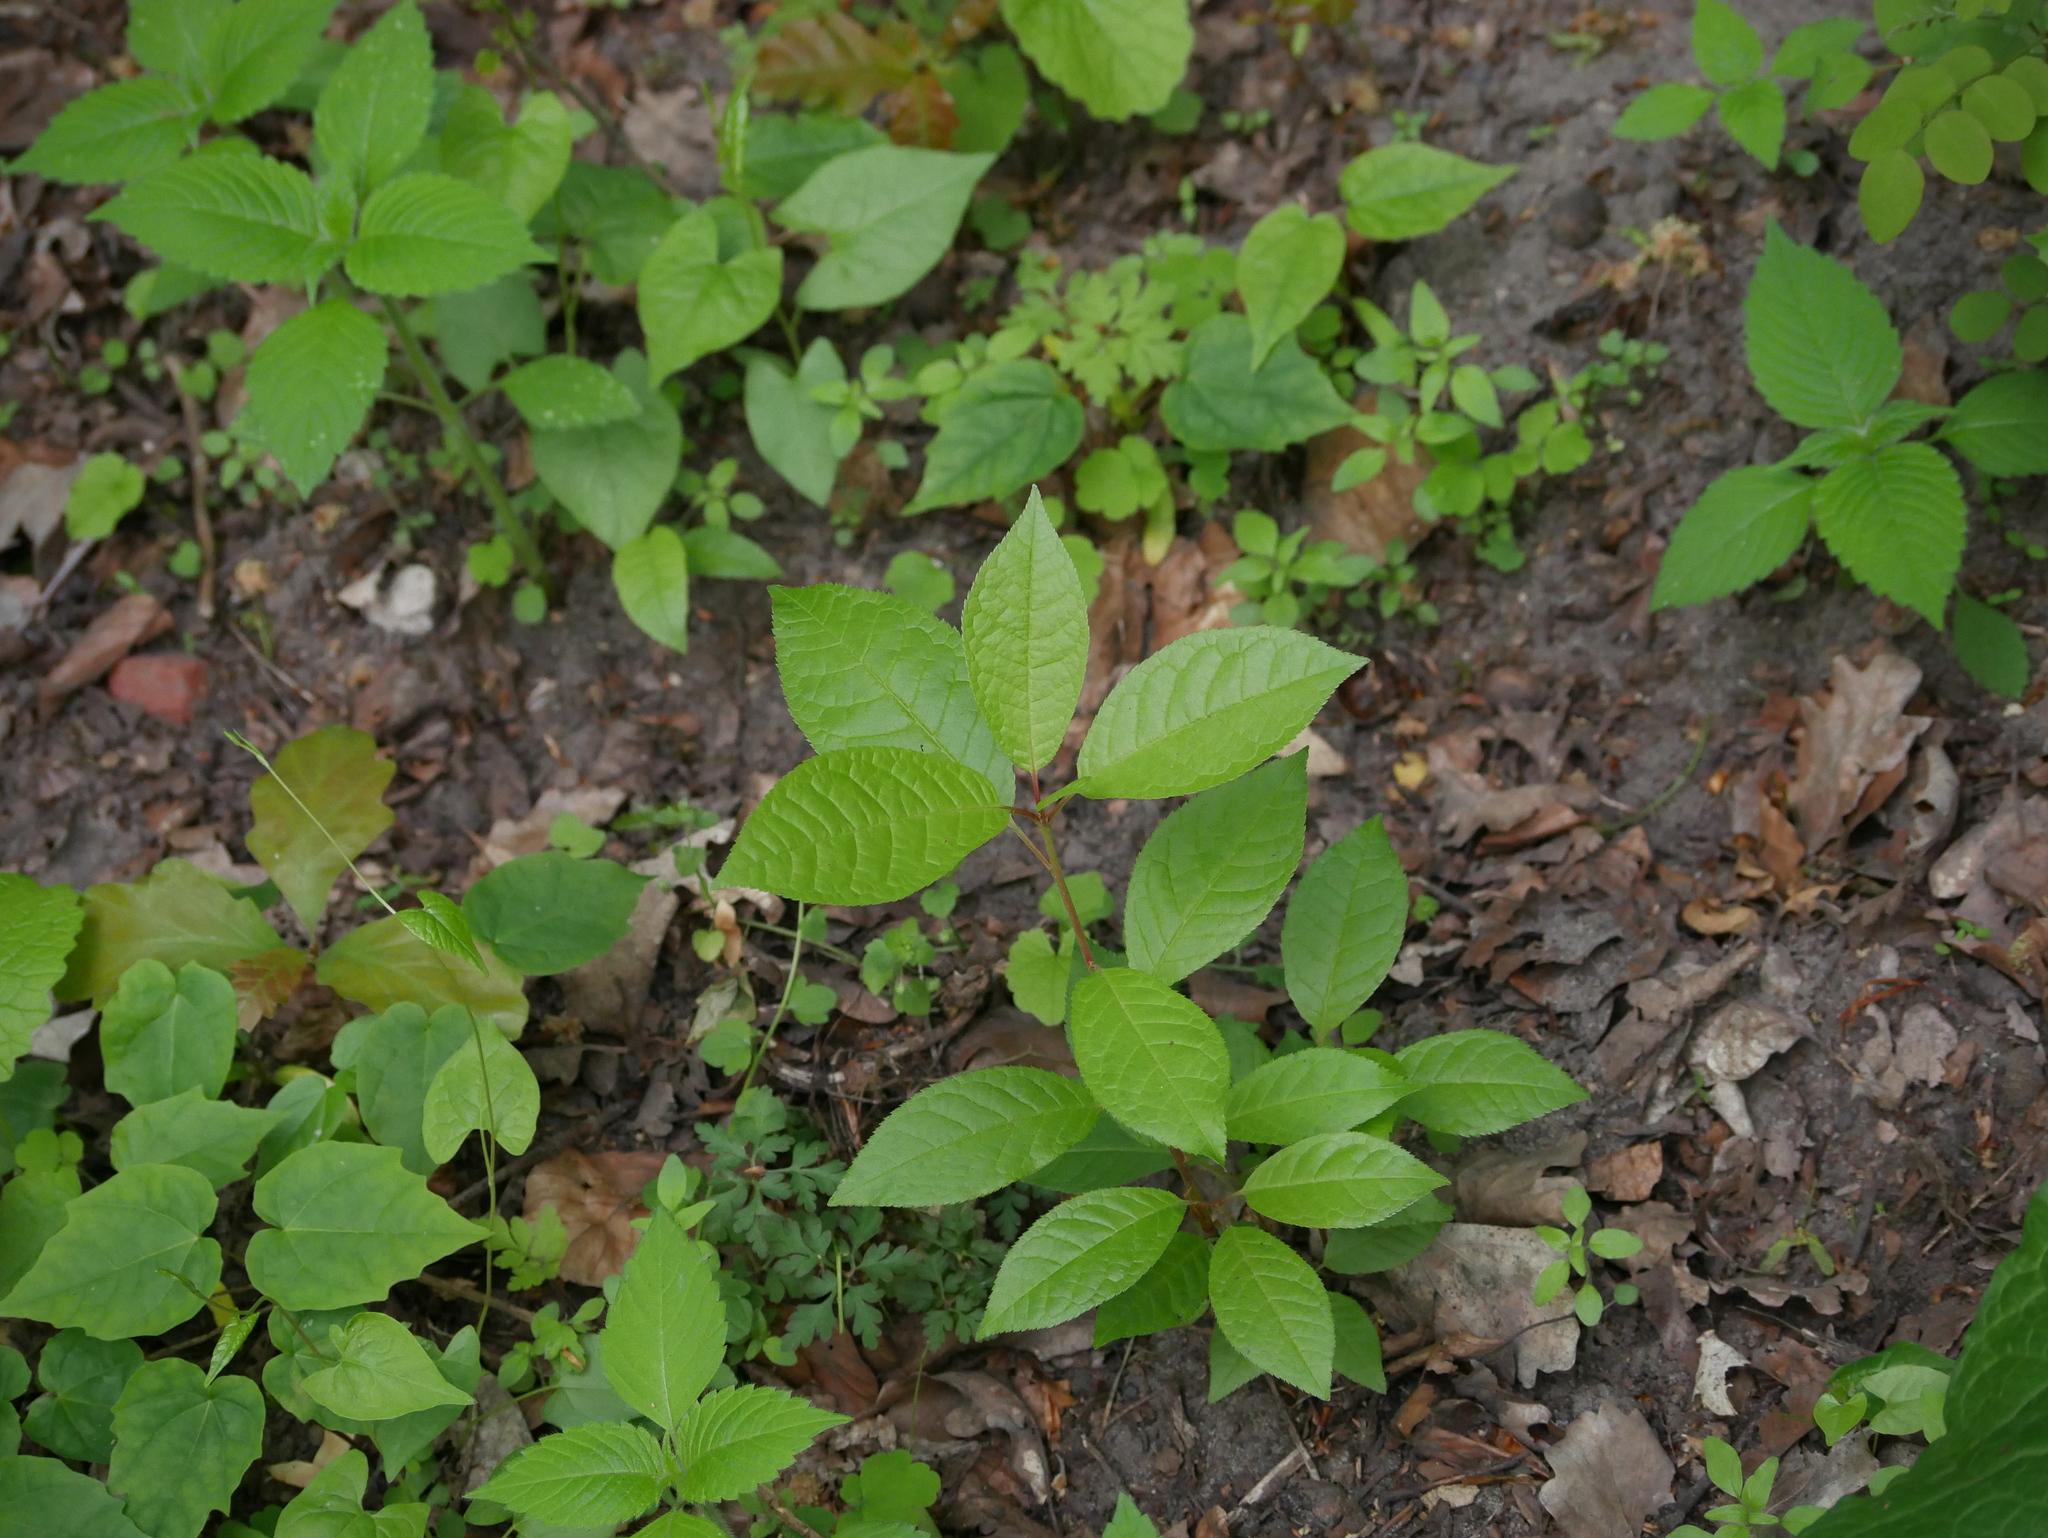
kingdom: Plantae
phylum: Tracheophyta
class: Magnoliopsida
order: Rosales
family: Rosaceae
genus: Prunus
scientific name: Prunus padus
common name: Bird cherry
